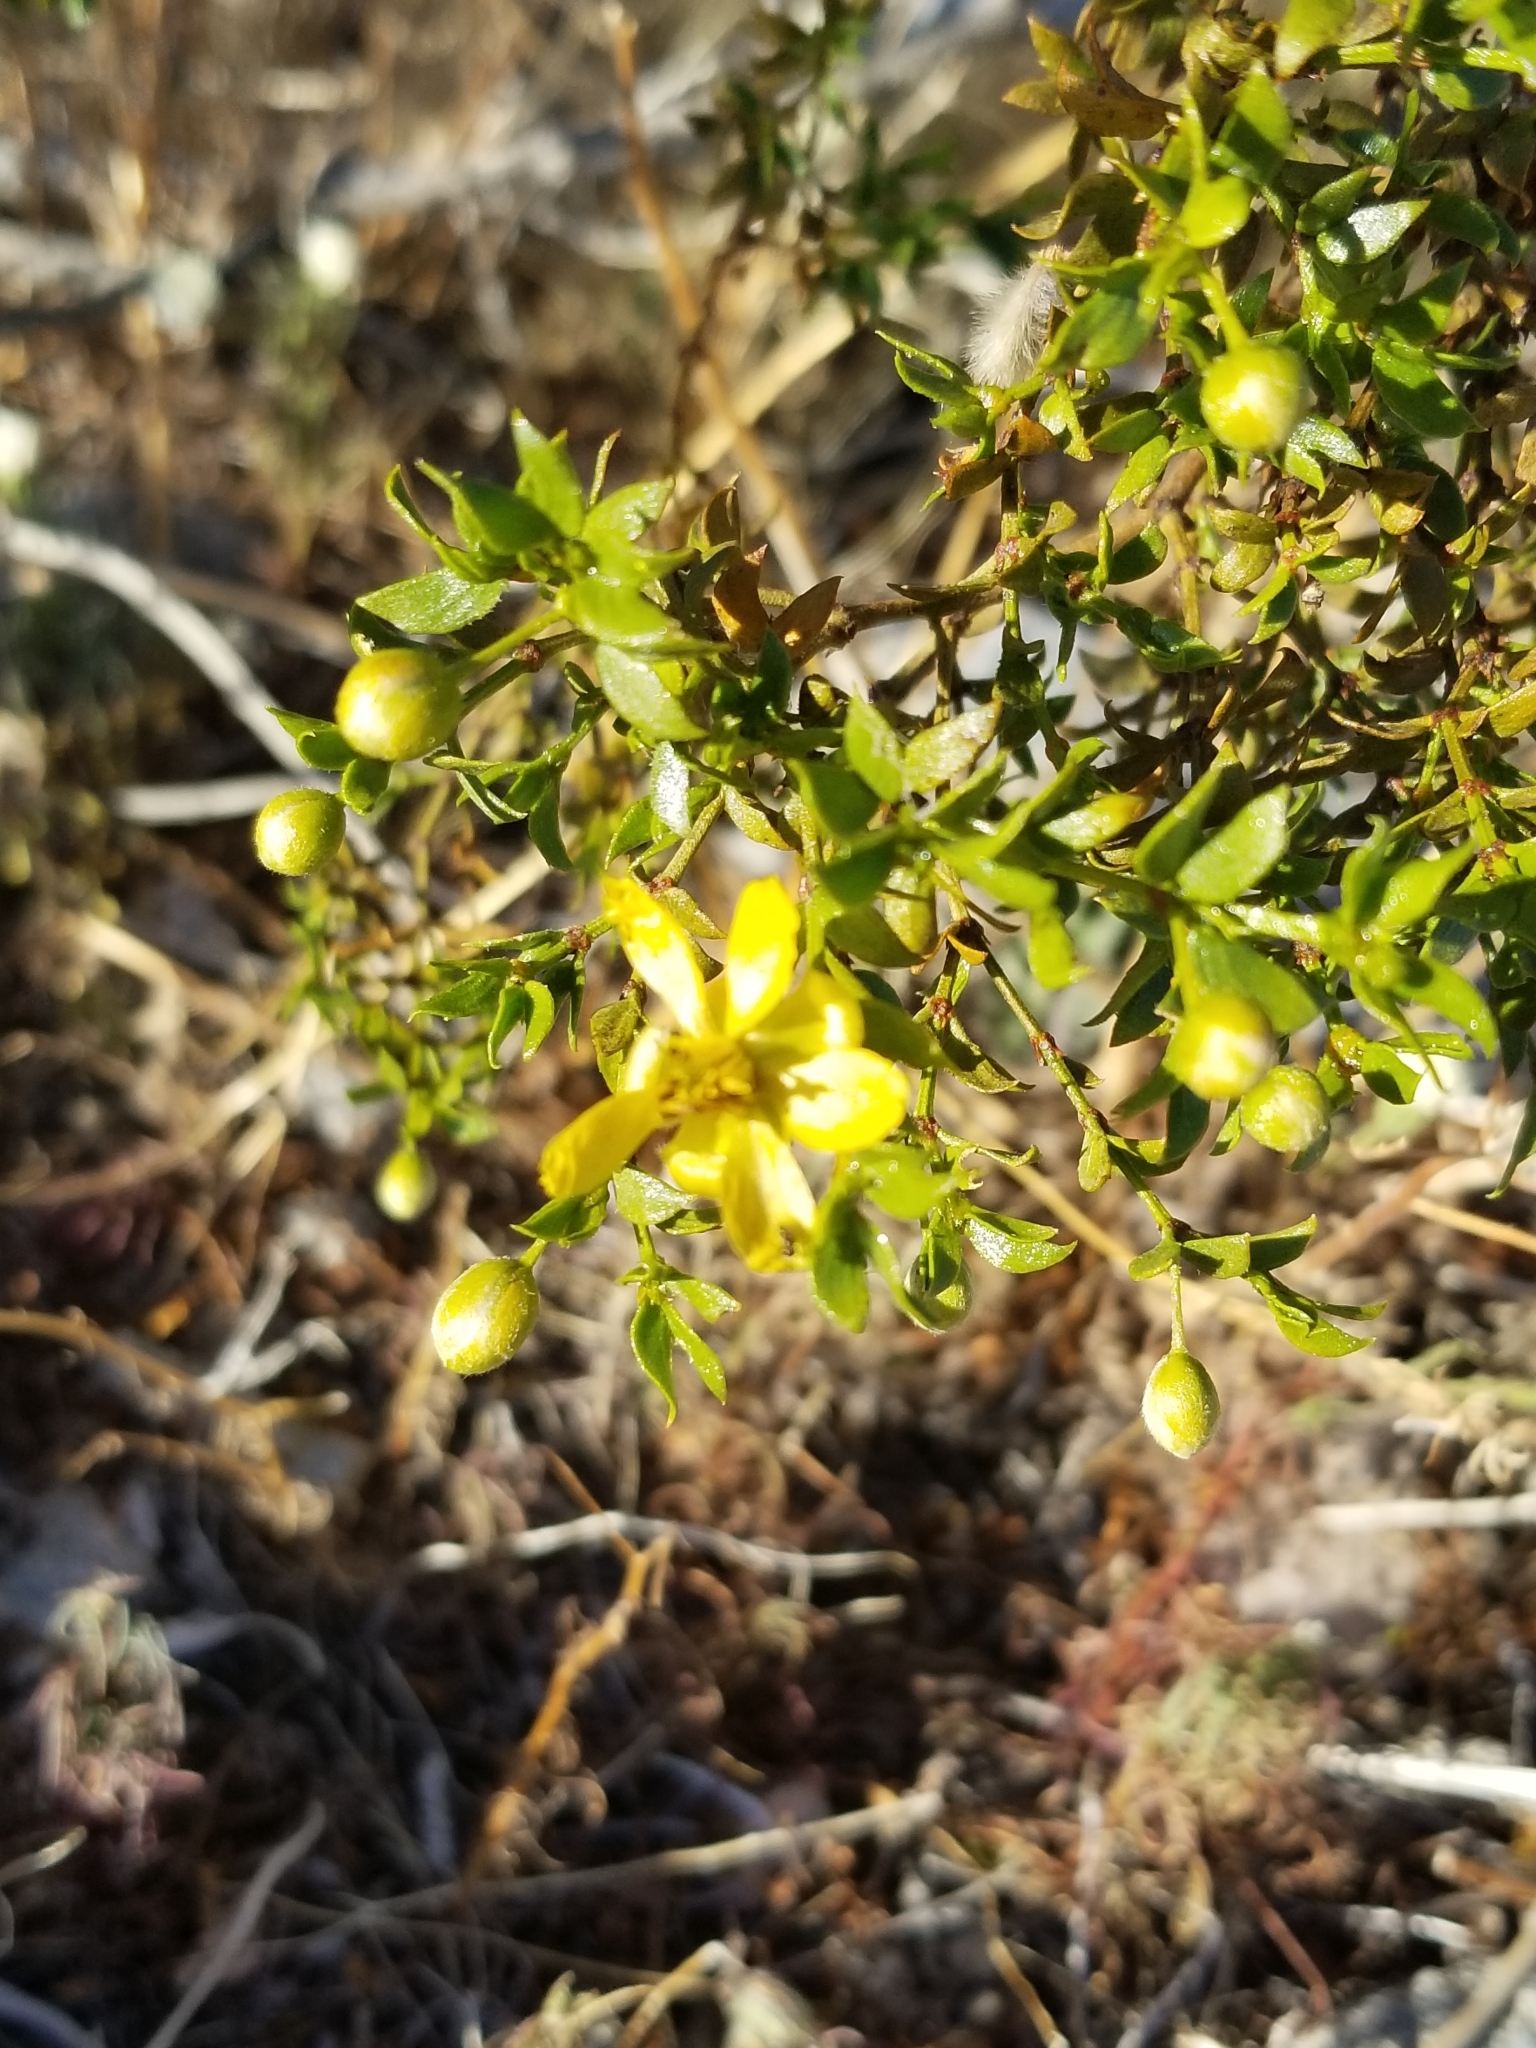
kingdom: Plantae
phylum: Tracheophyta
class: Magnoliopsida
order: Zygophyllales
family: Zygophyllaceae
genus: Larrea
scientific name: Larrea tridentata
